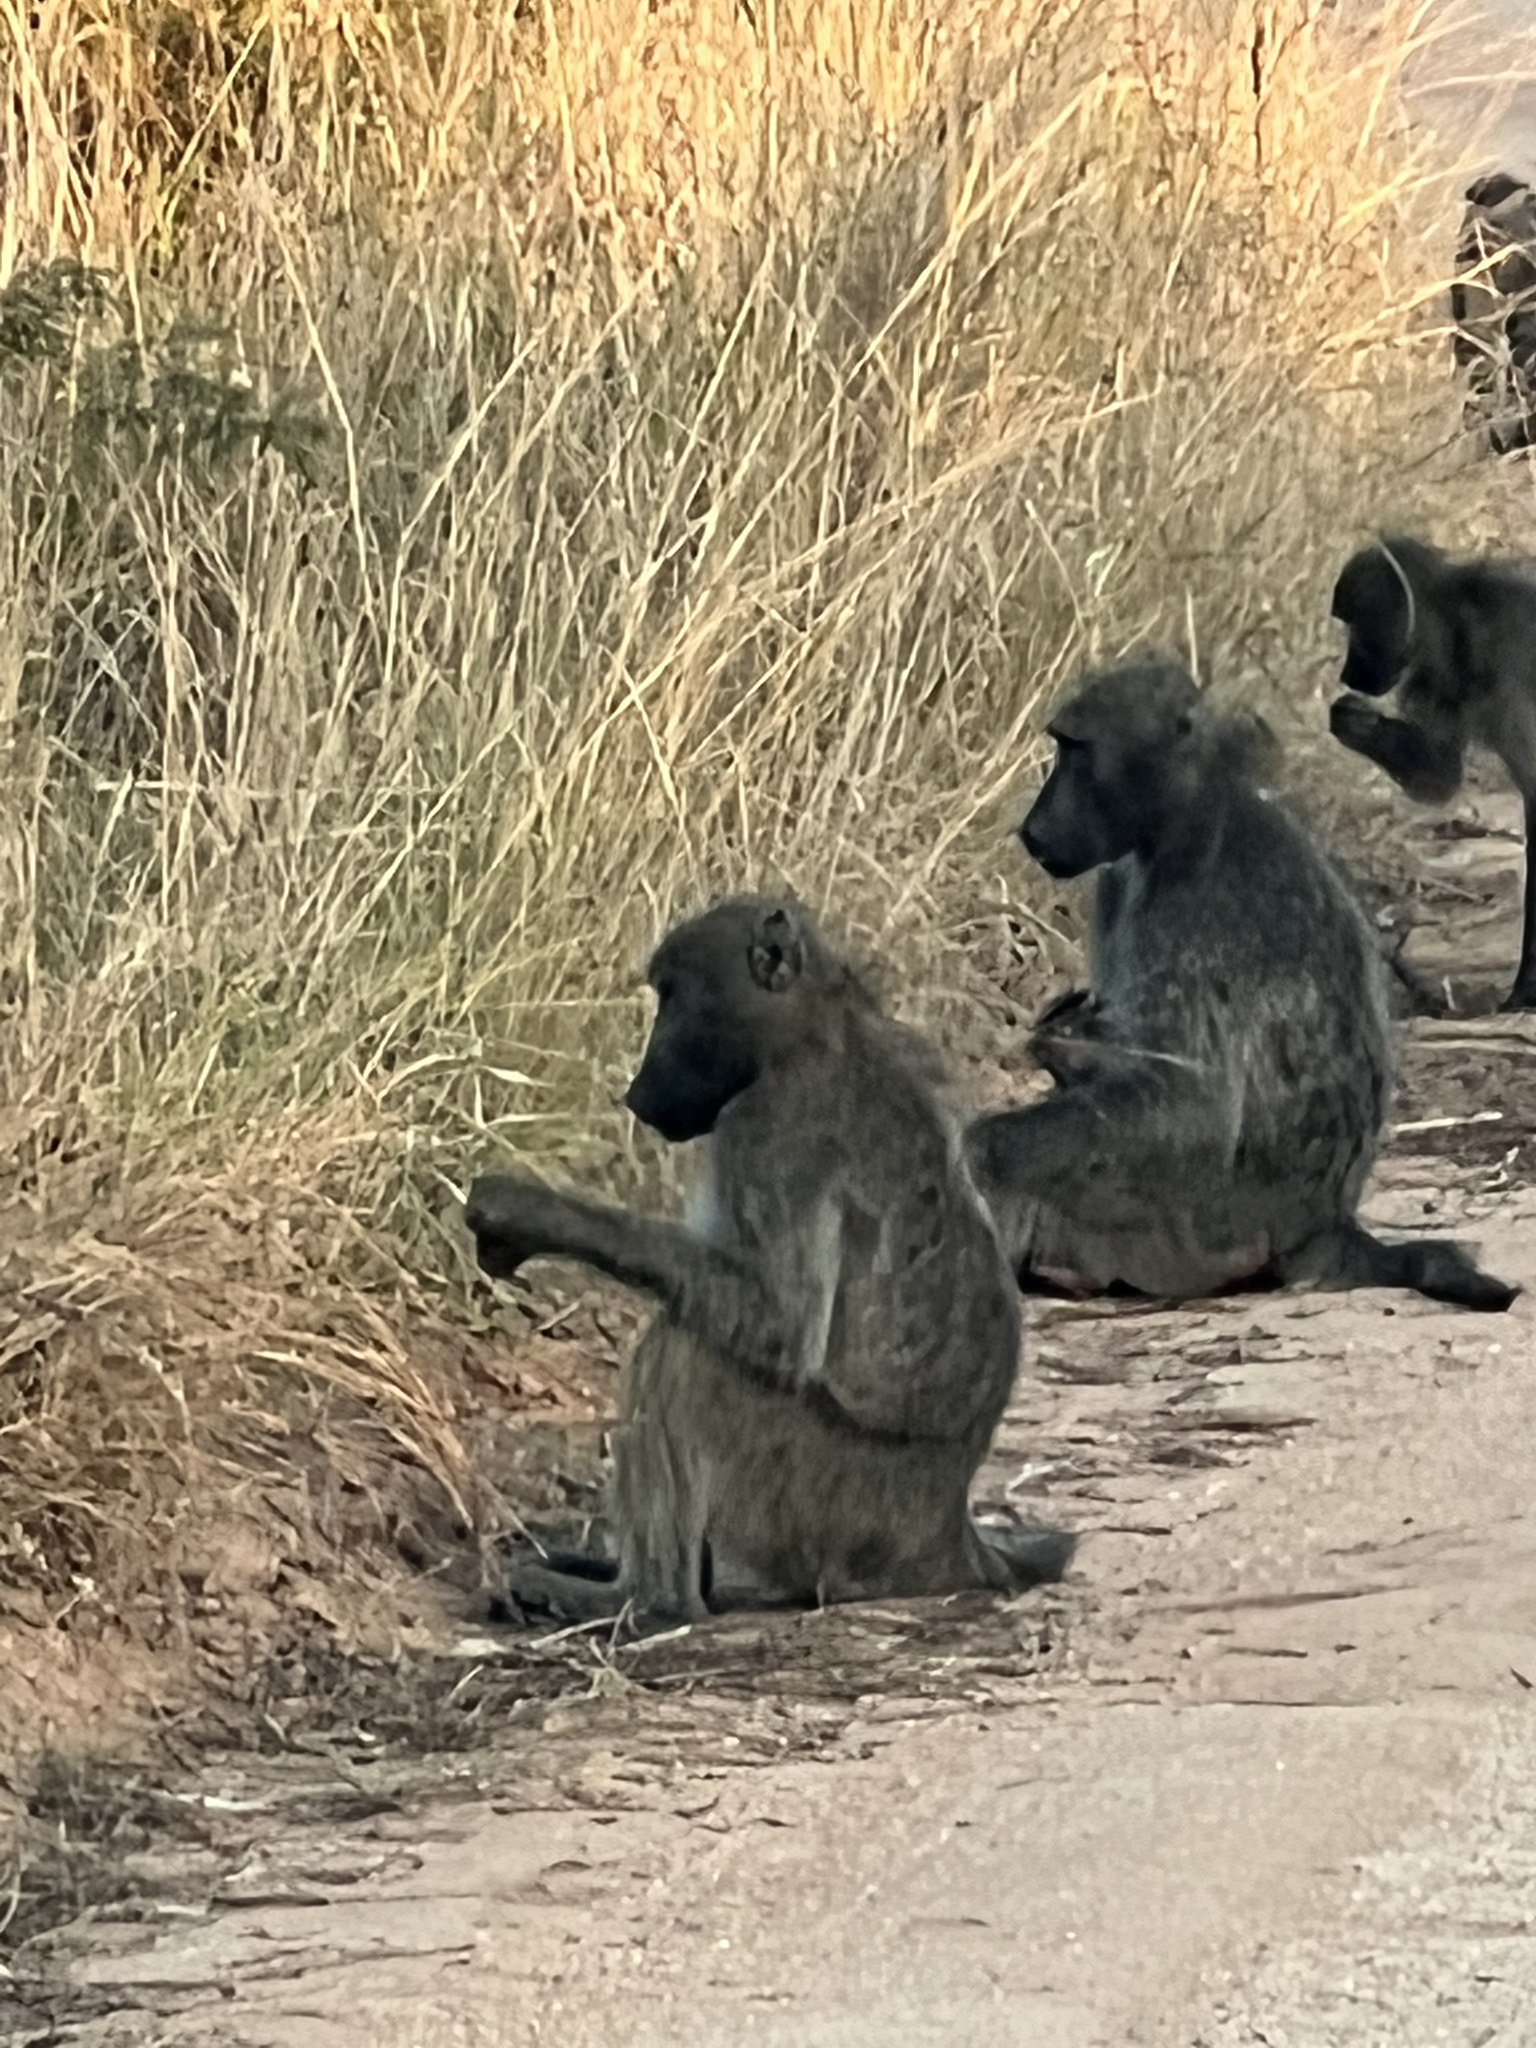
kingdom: Animalia
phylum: Chordata
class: Mammalia
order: Primates
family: Cercopithecidae
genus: Papio
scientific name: Papio ursinus
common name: Chacma baboon
